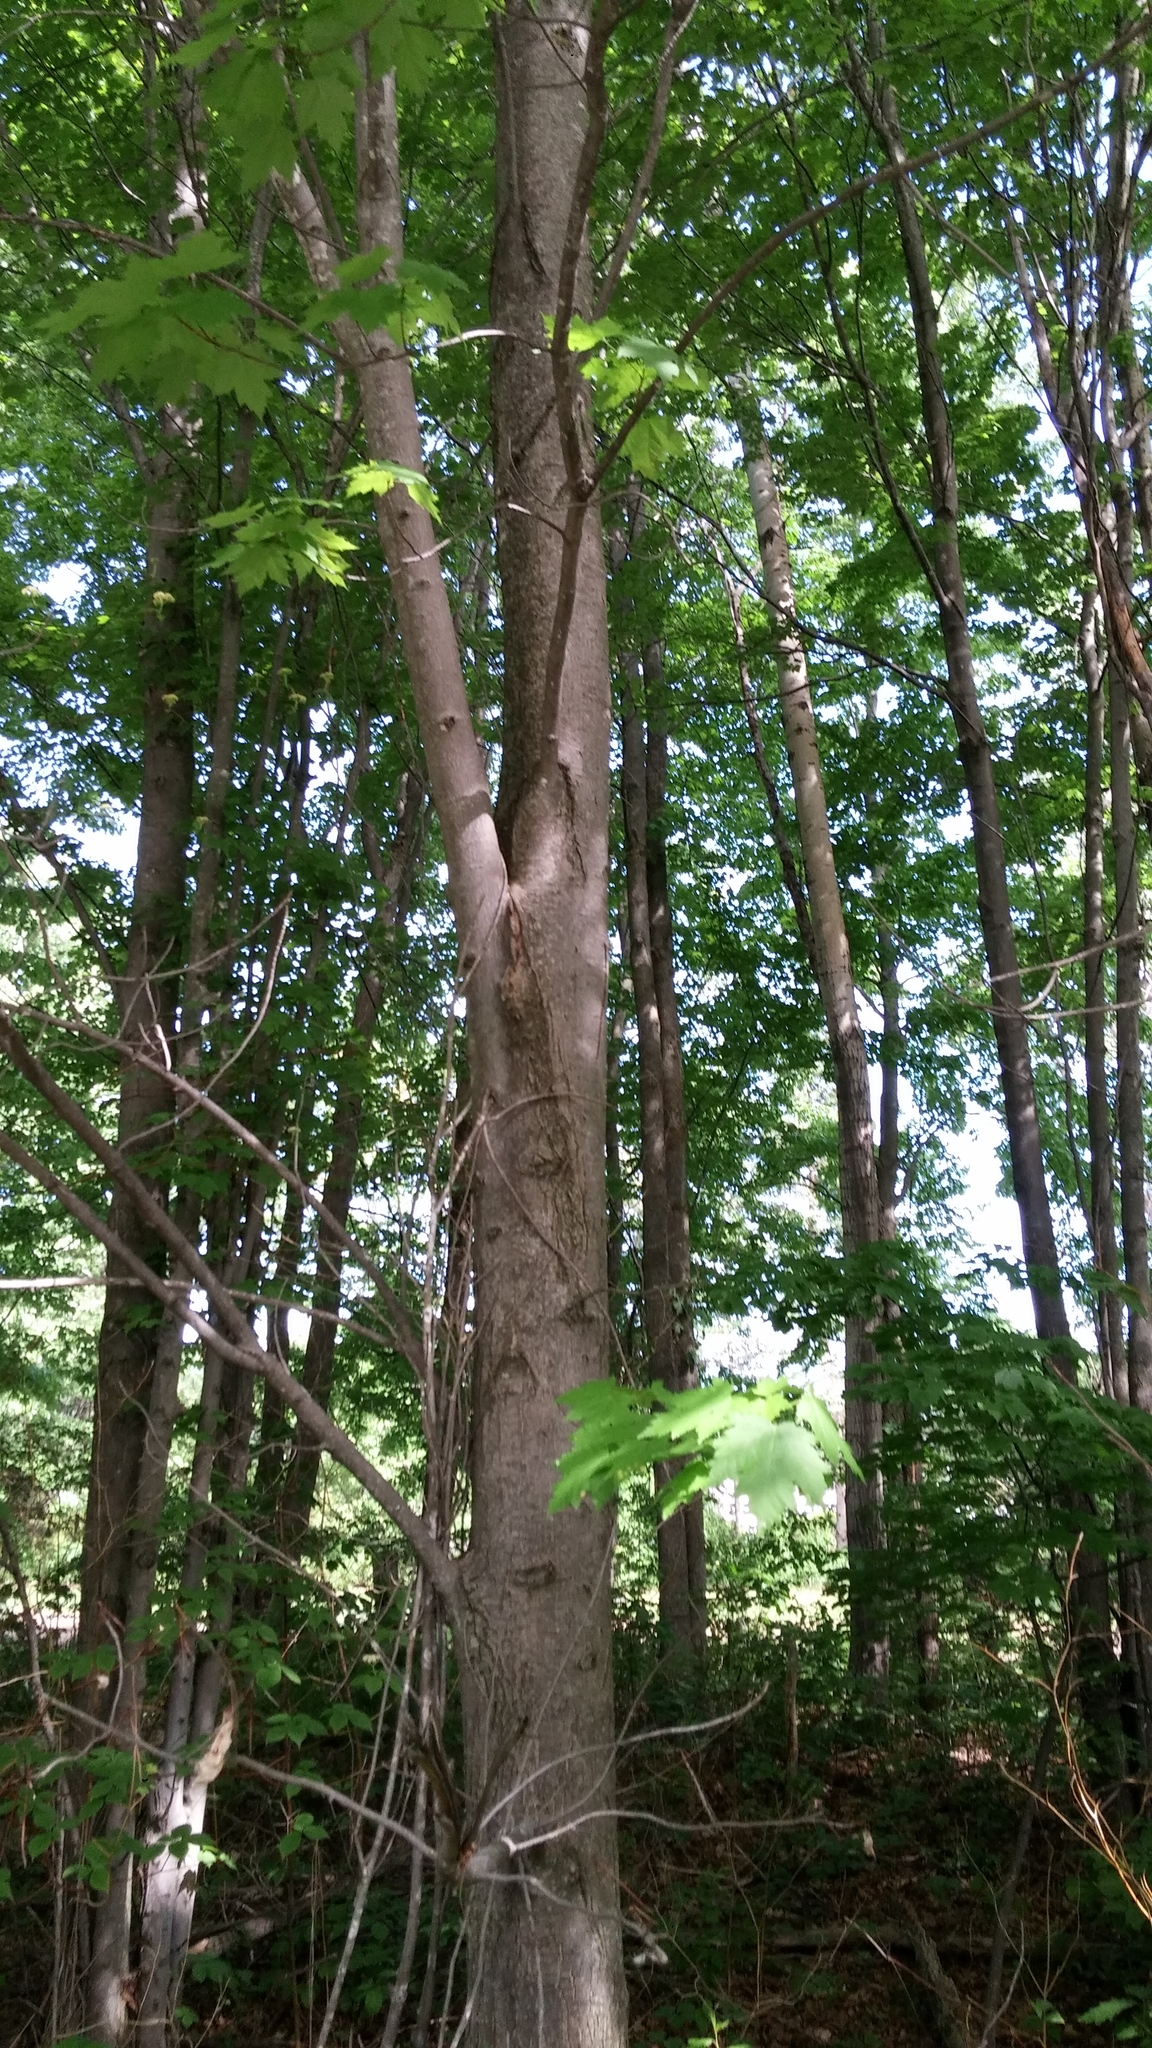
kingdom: Plantae
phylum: Tracheophyta
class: Magnoliopsida
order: Sapindales
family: Sapindaceae
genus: Acer
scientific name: Acer rubrum
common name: Red maple
